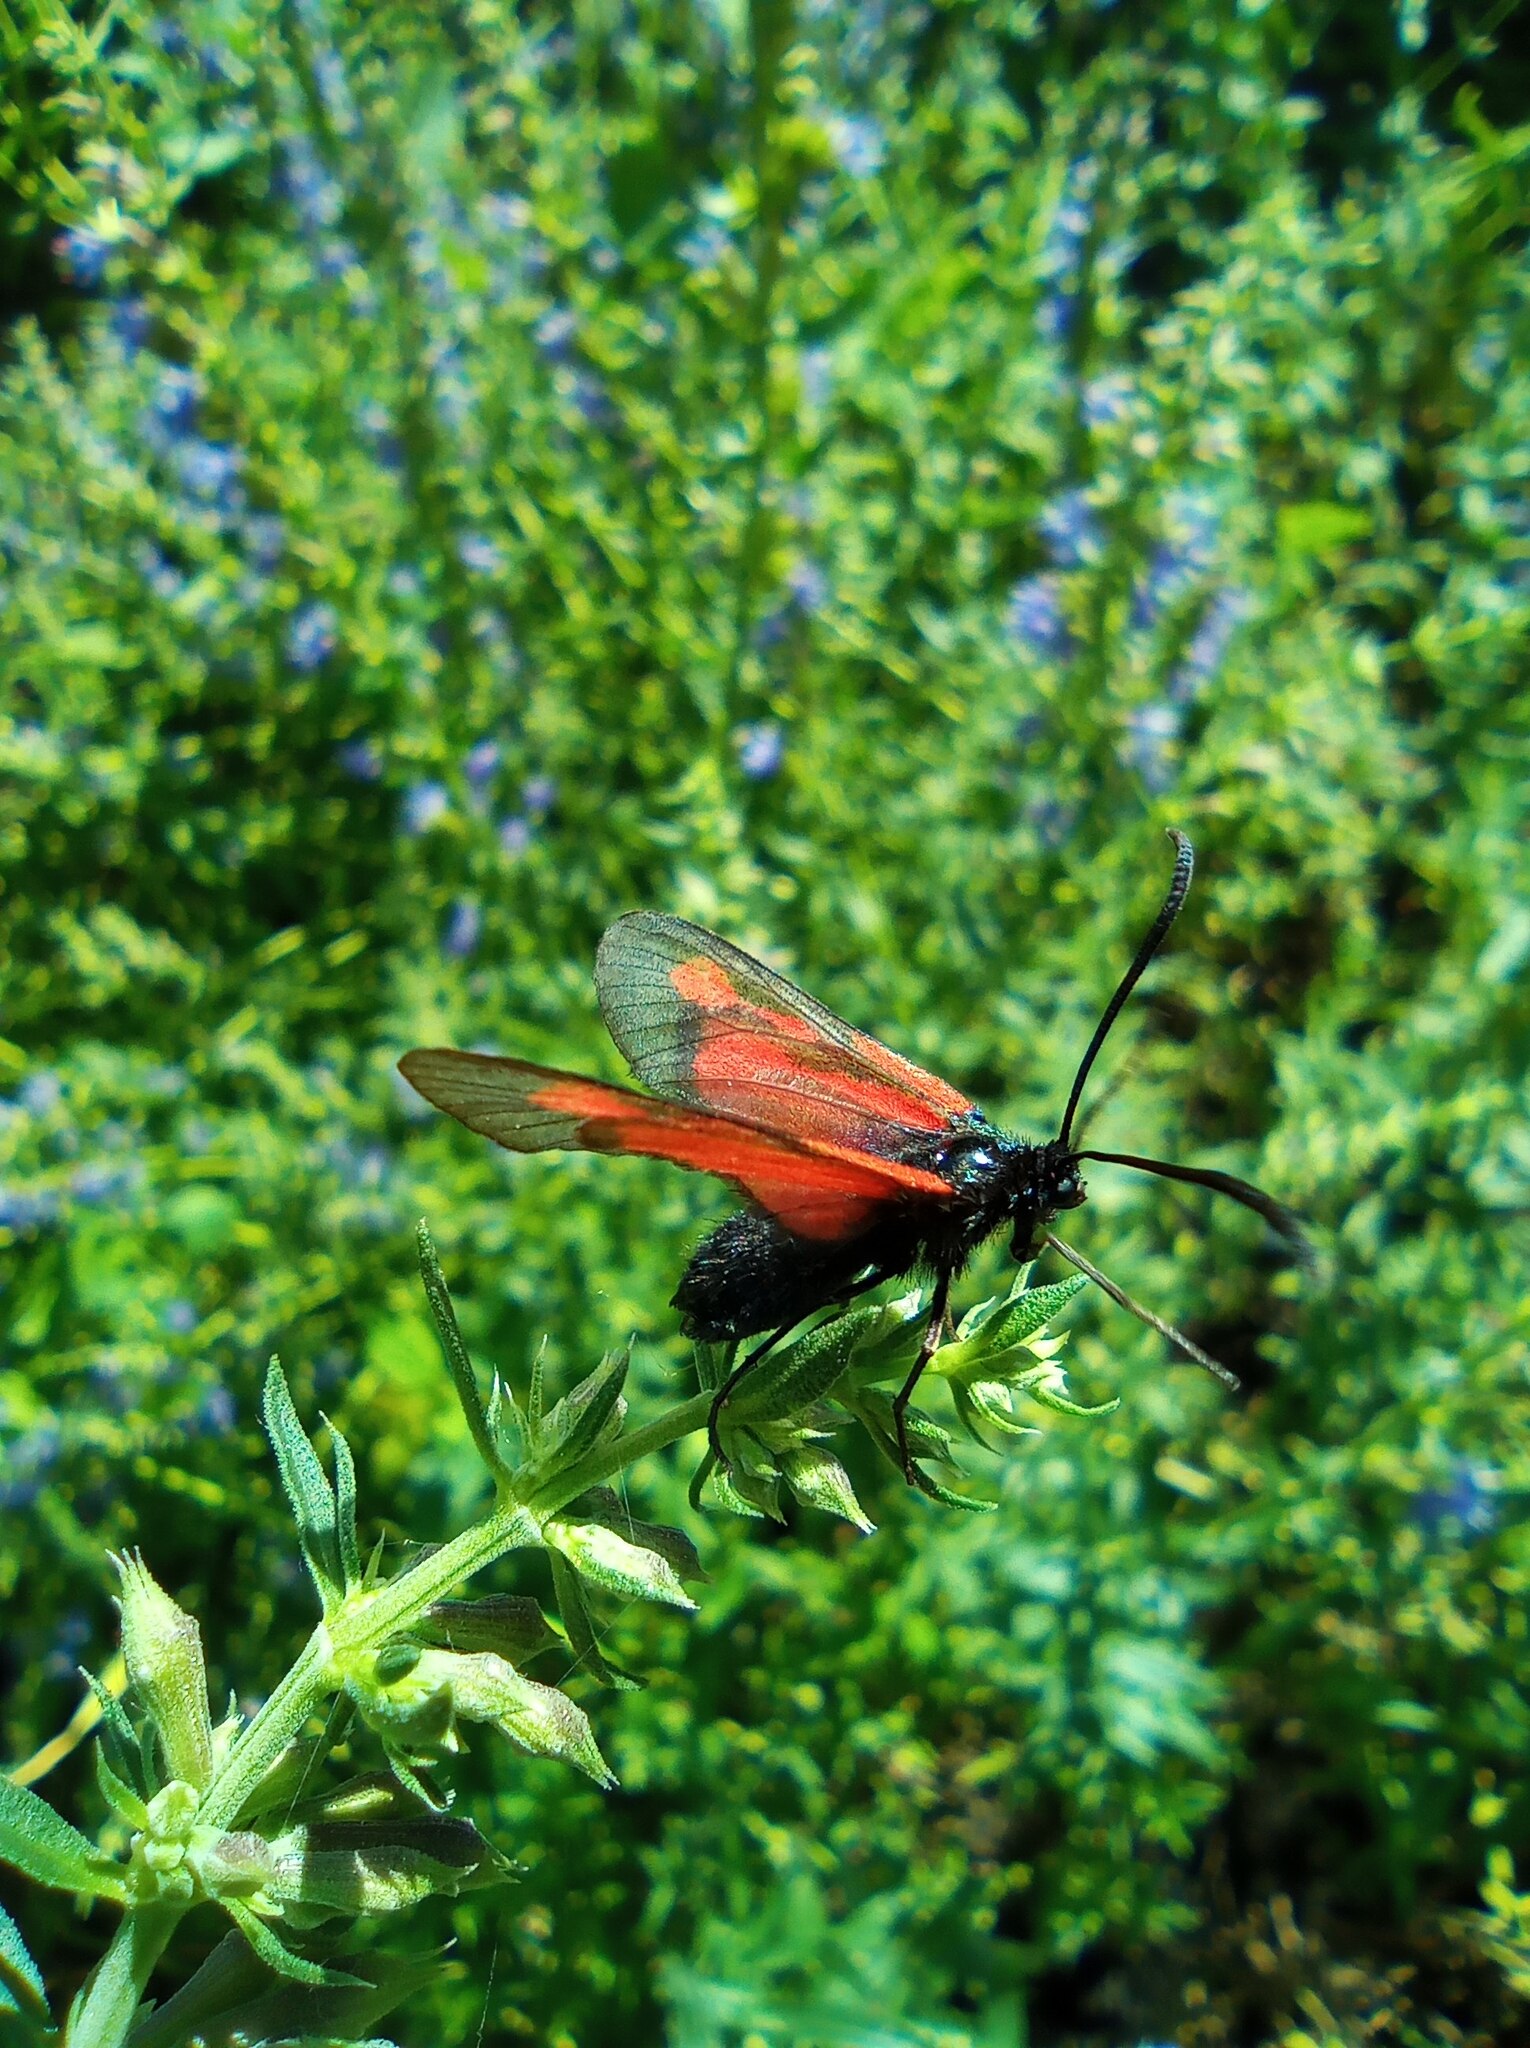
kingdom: Animalia
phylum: Arthropoda
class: Insecta
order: Lepidoptera
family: Zygaenidae
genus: Zygaena
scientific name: Zygaena osterodensis
